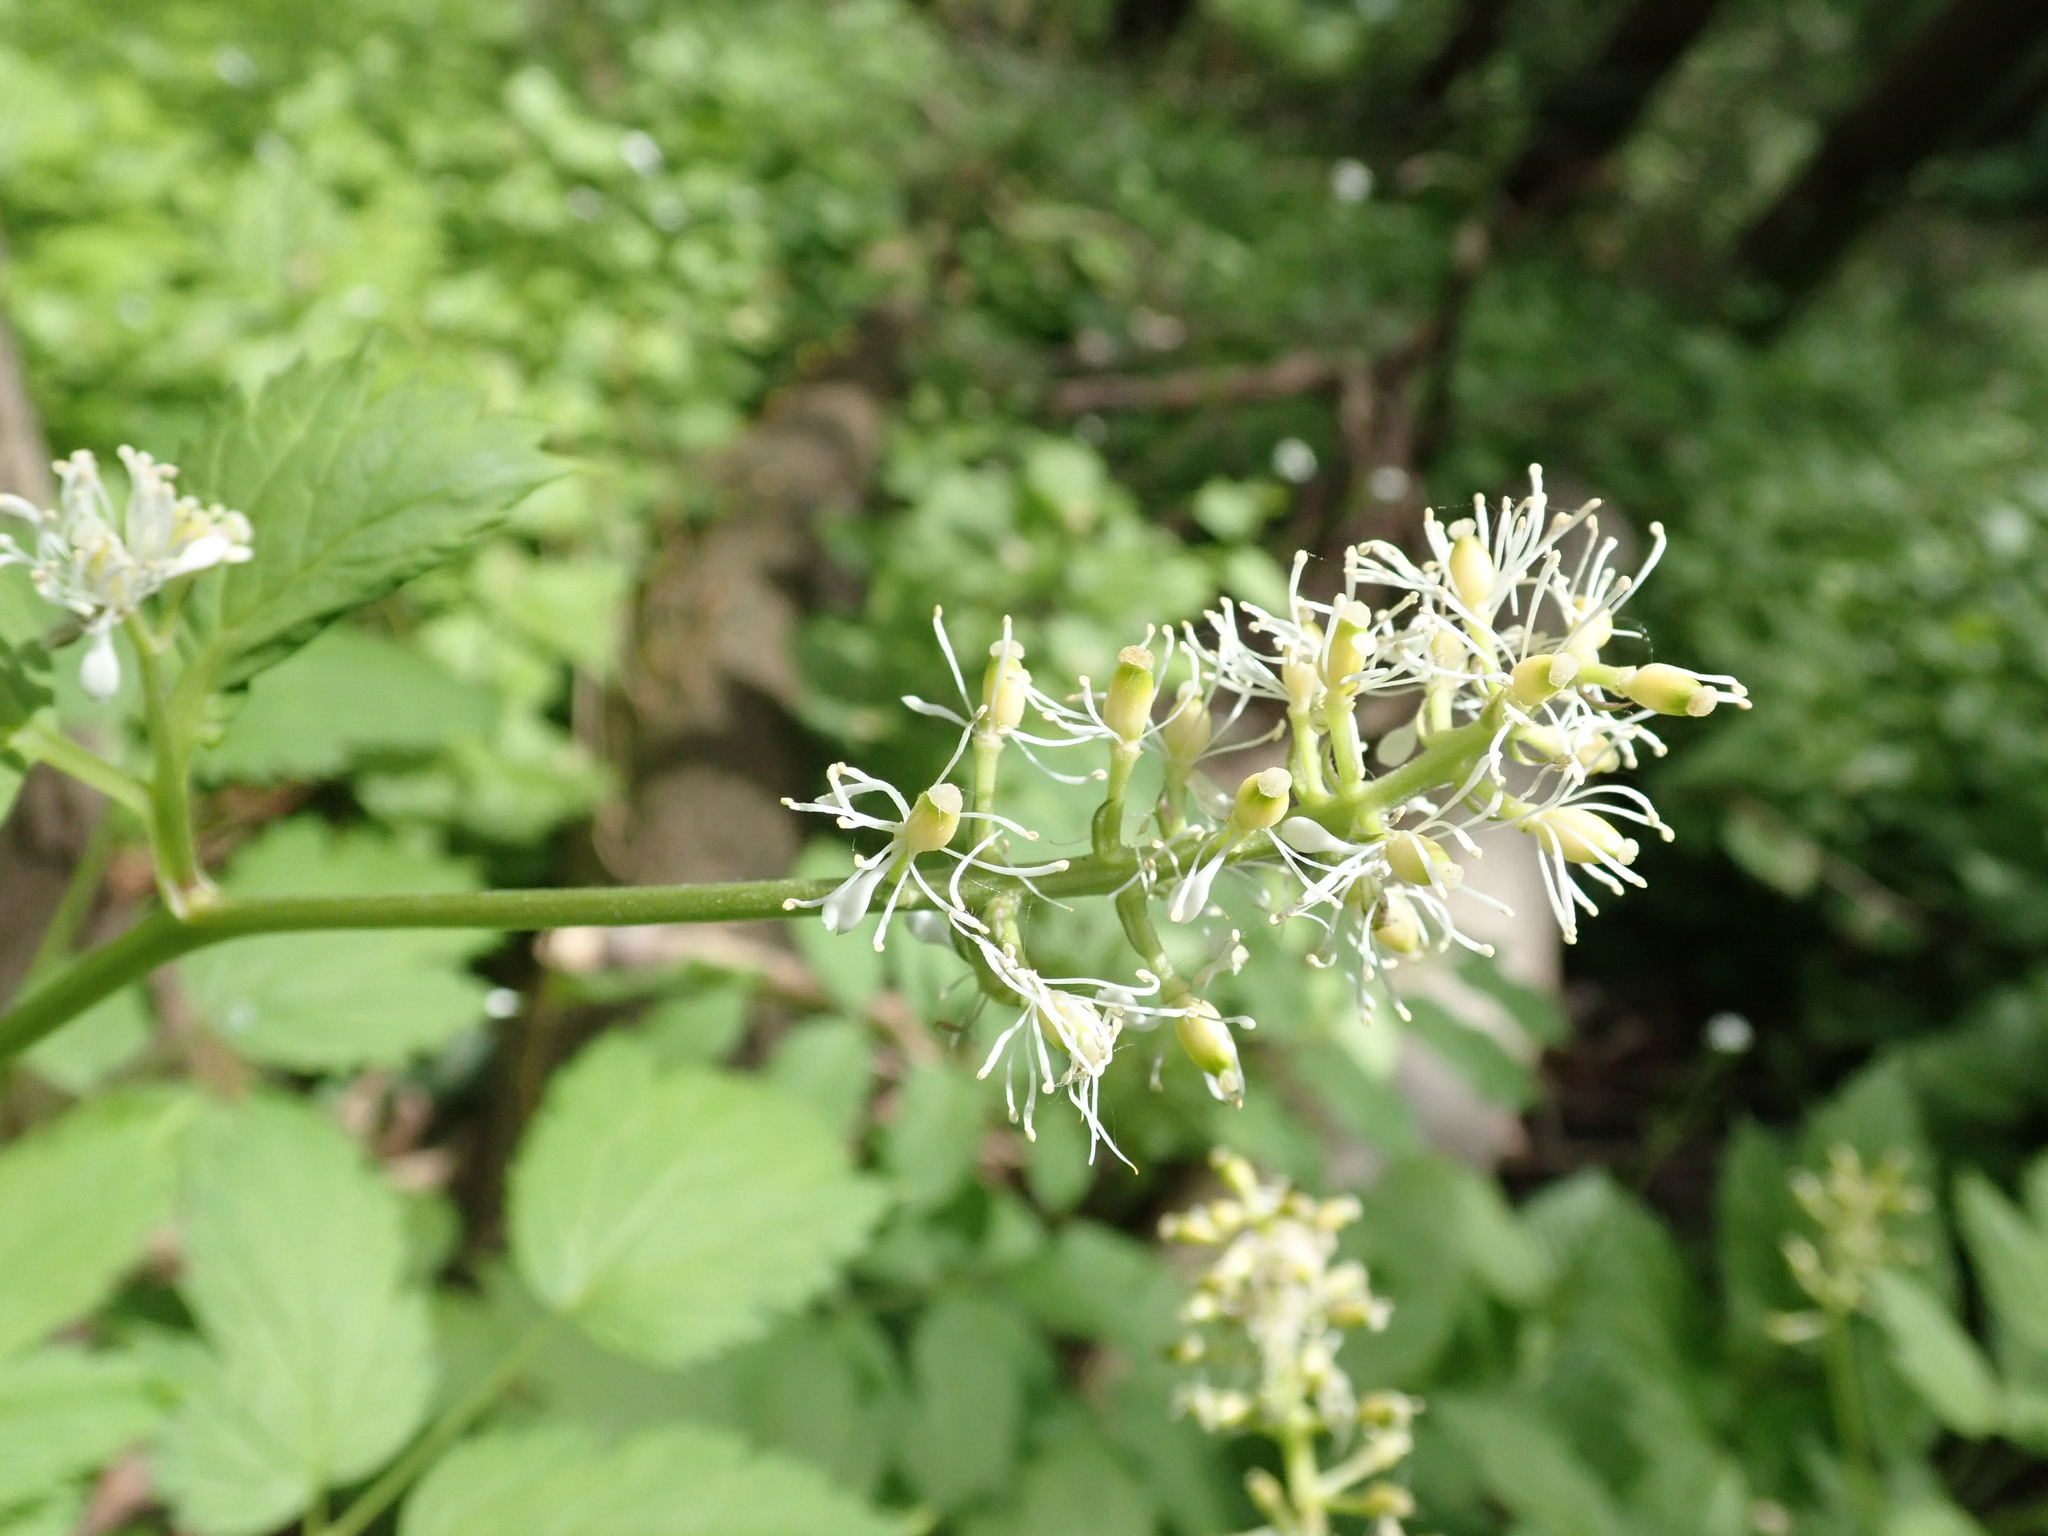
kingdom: Plantae
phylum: Tracheophyta
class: Magnoliopsida
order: Ranunculales
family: Ranunculaceae
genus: Actaea
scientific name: Actaea spicata
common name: Baneberry
